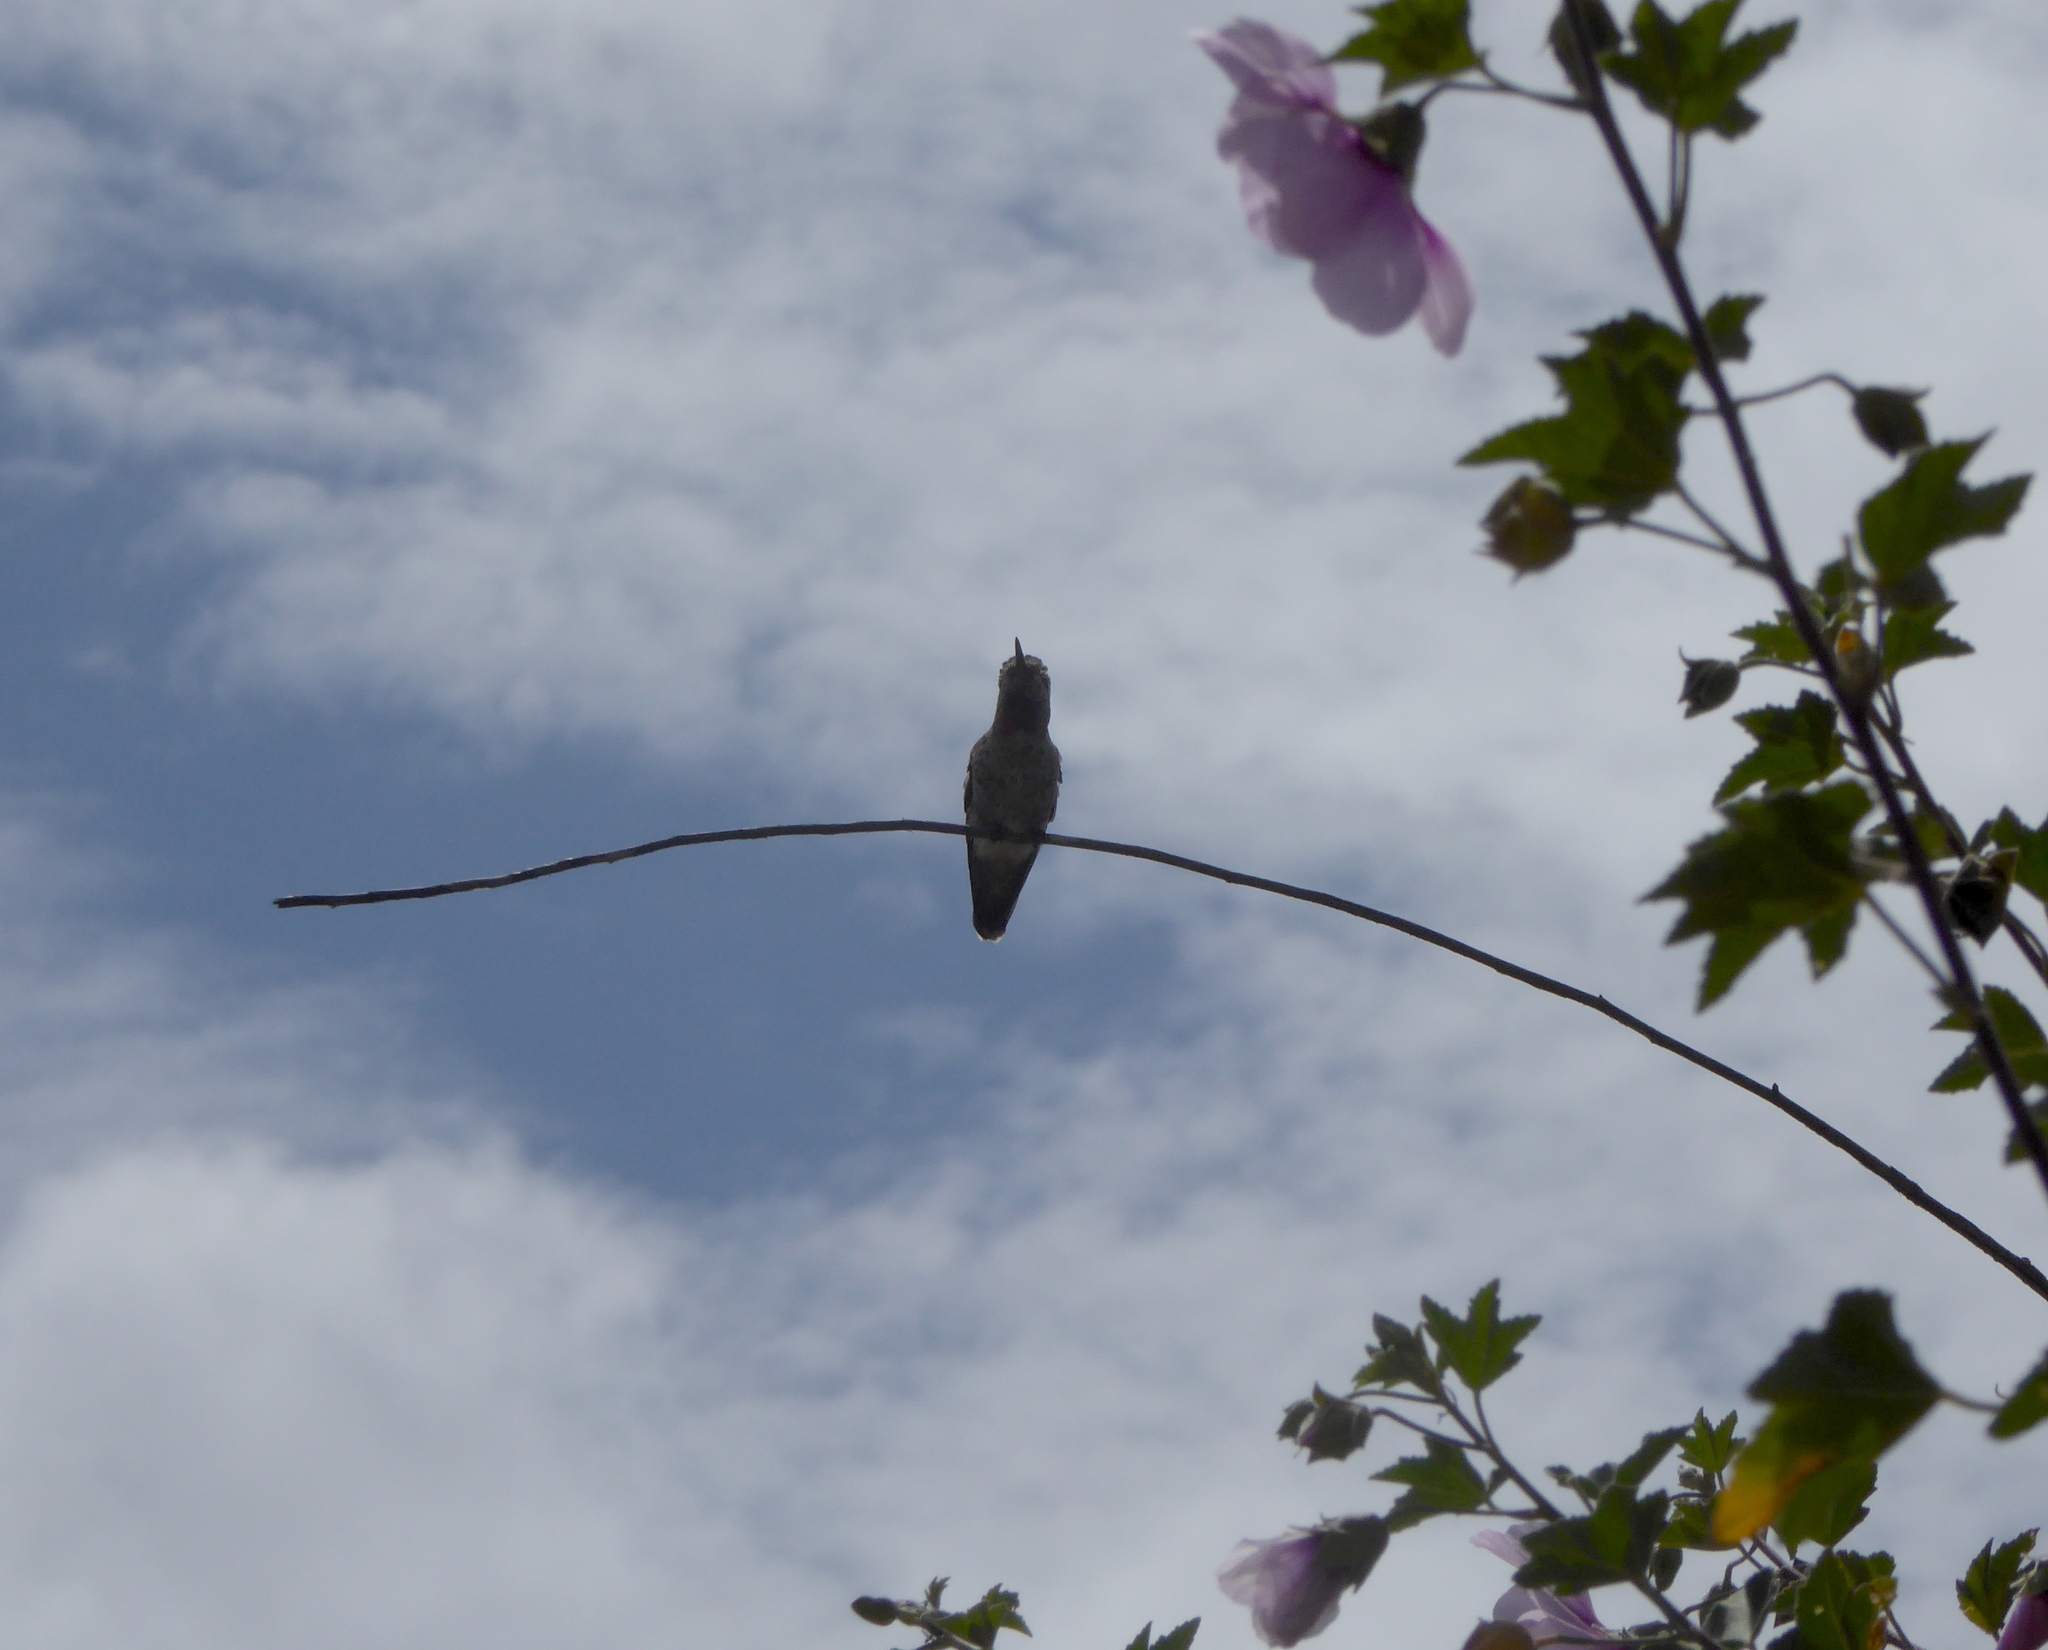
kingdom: Animalia
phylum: Chordata
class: Aves
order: Apodiformes
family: Trochilidae
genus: Calypte
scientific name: Calypte anna
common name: Anna's hummingbird
